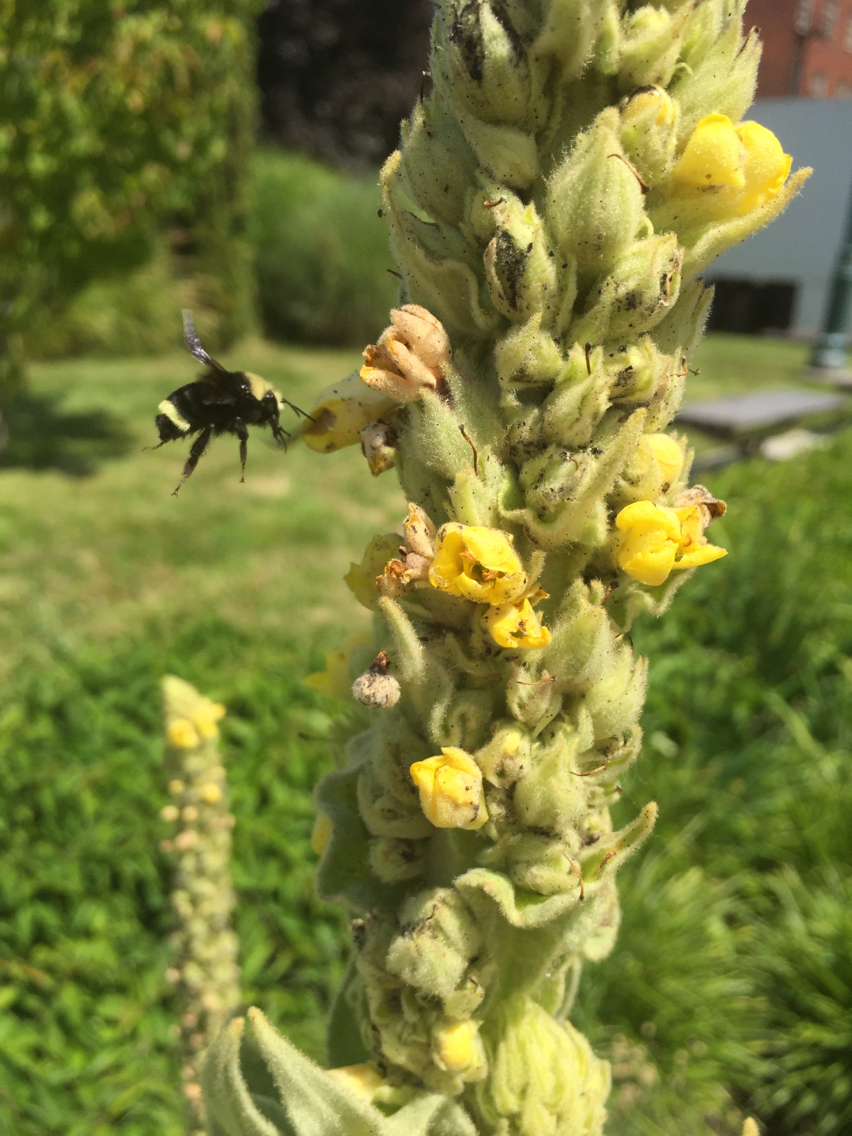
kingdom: Plantae
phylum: Tracheophyta
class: Magnoliopsida
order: Lamiales
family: Scrophulariaceae
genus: Verbascum
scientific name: Verbascum thapsus
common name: Common mullein
